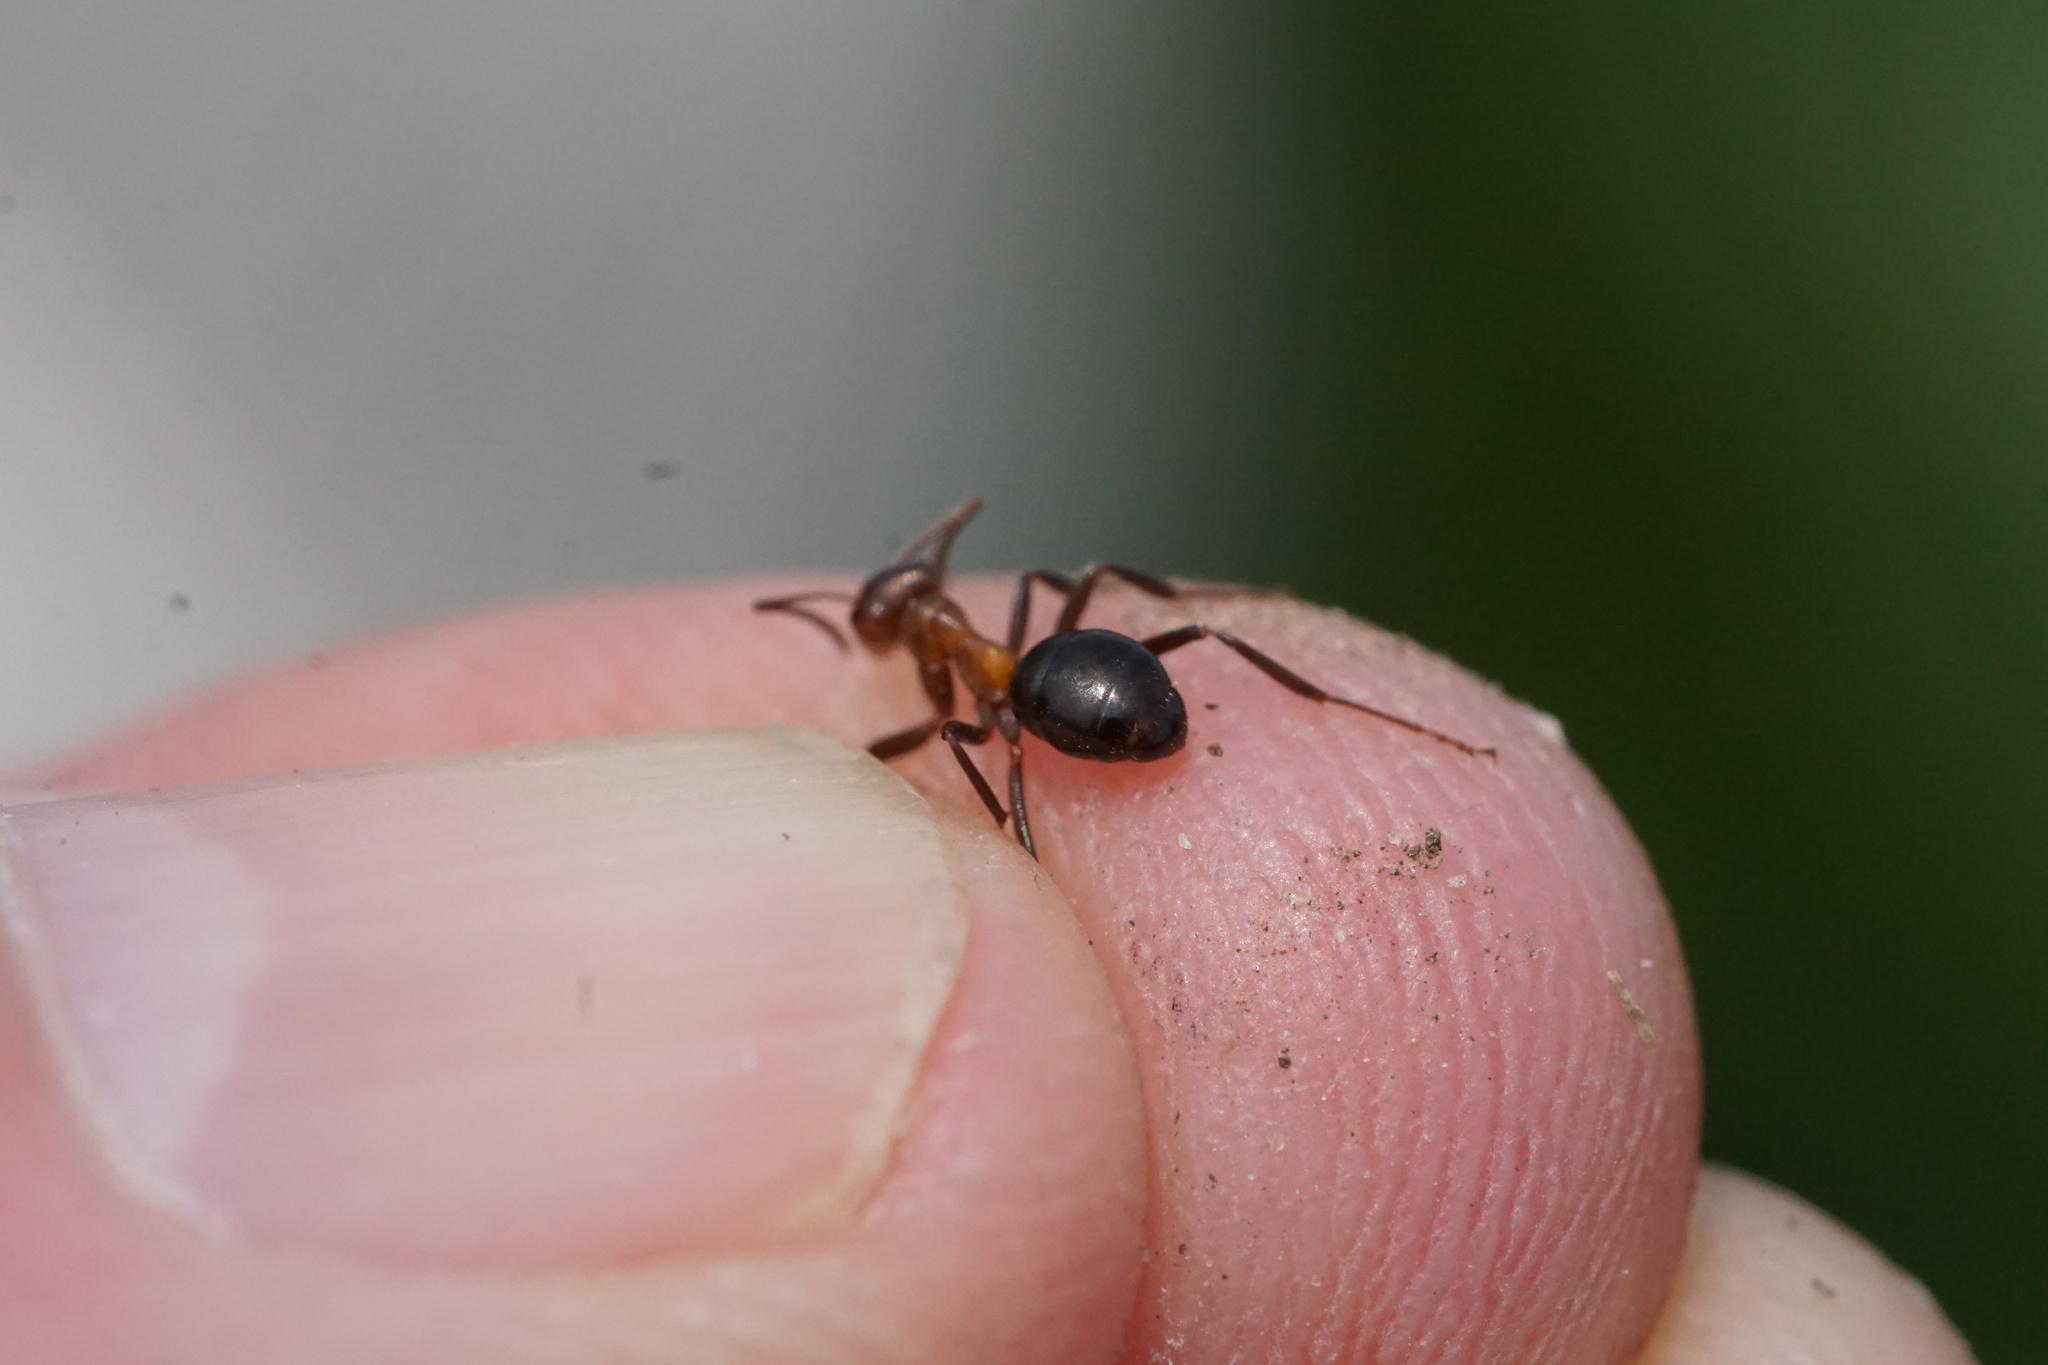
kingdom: Animalia
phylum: Arthropoda
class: Insecta
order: Hymenoptera
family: Formicidae
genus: Formica
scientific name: Formica exsectoides
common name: Allegheny mound ant
